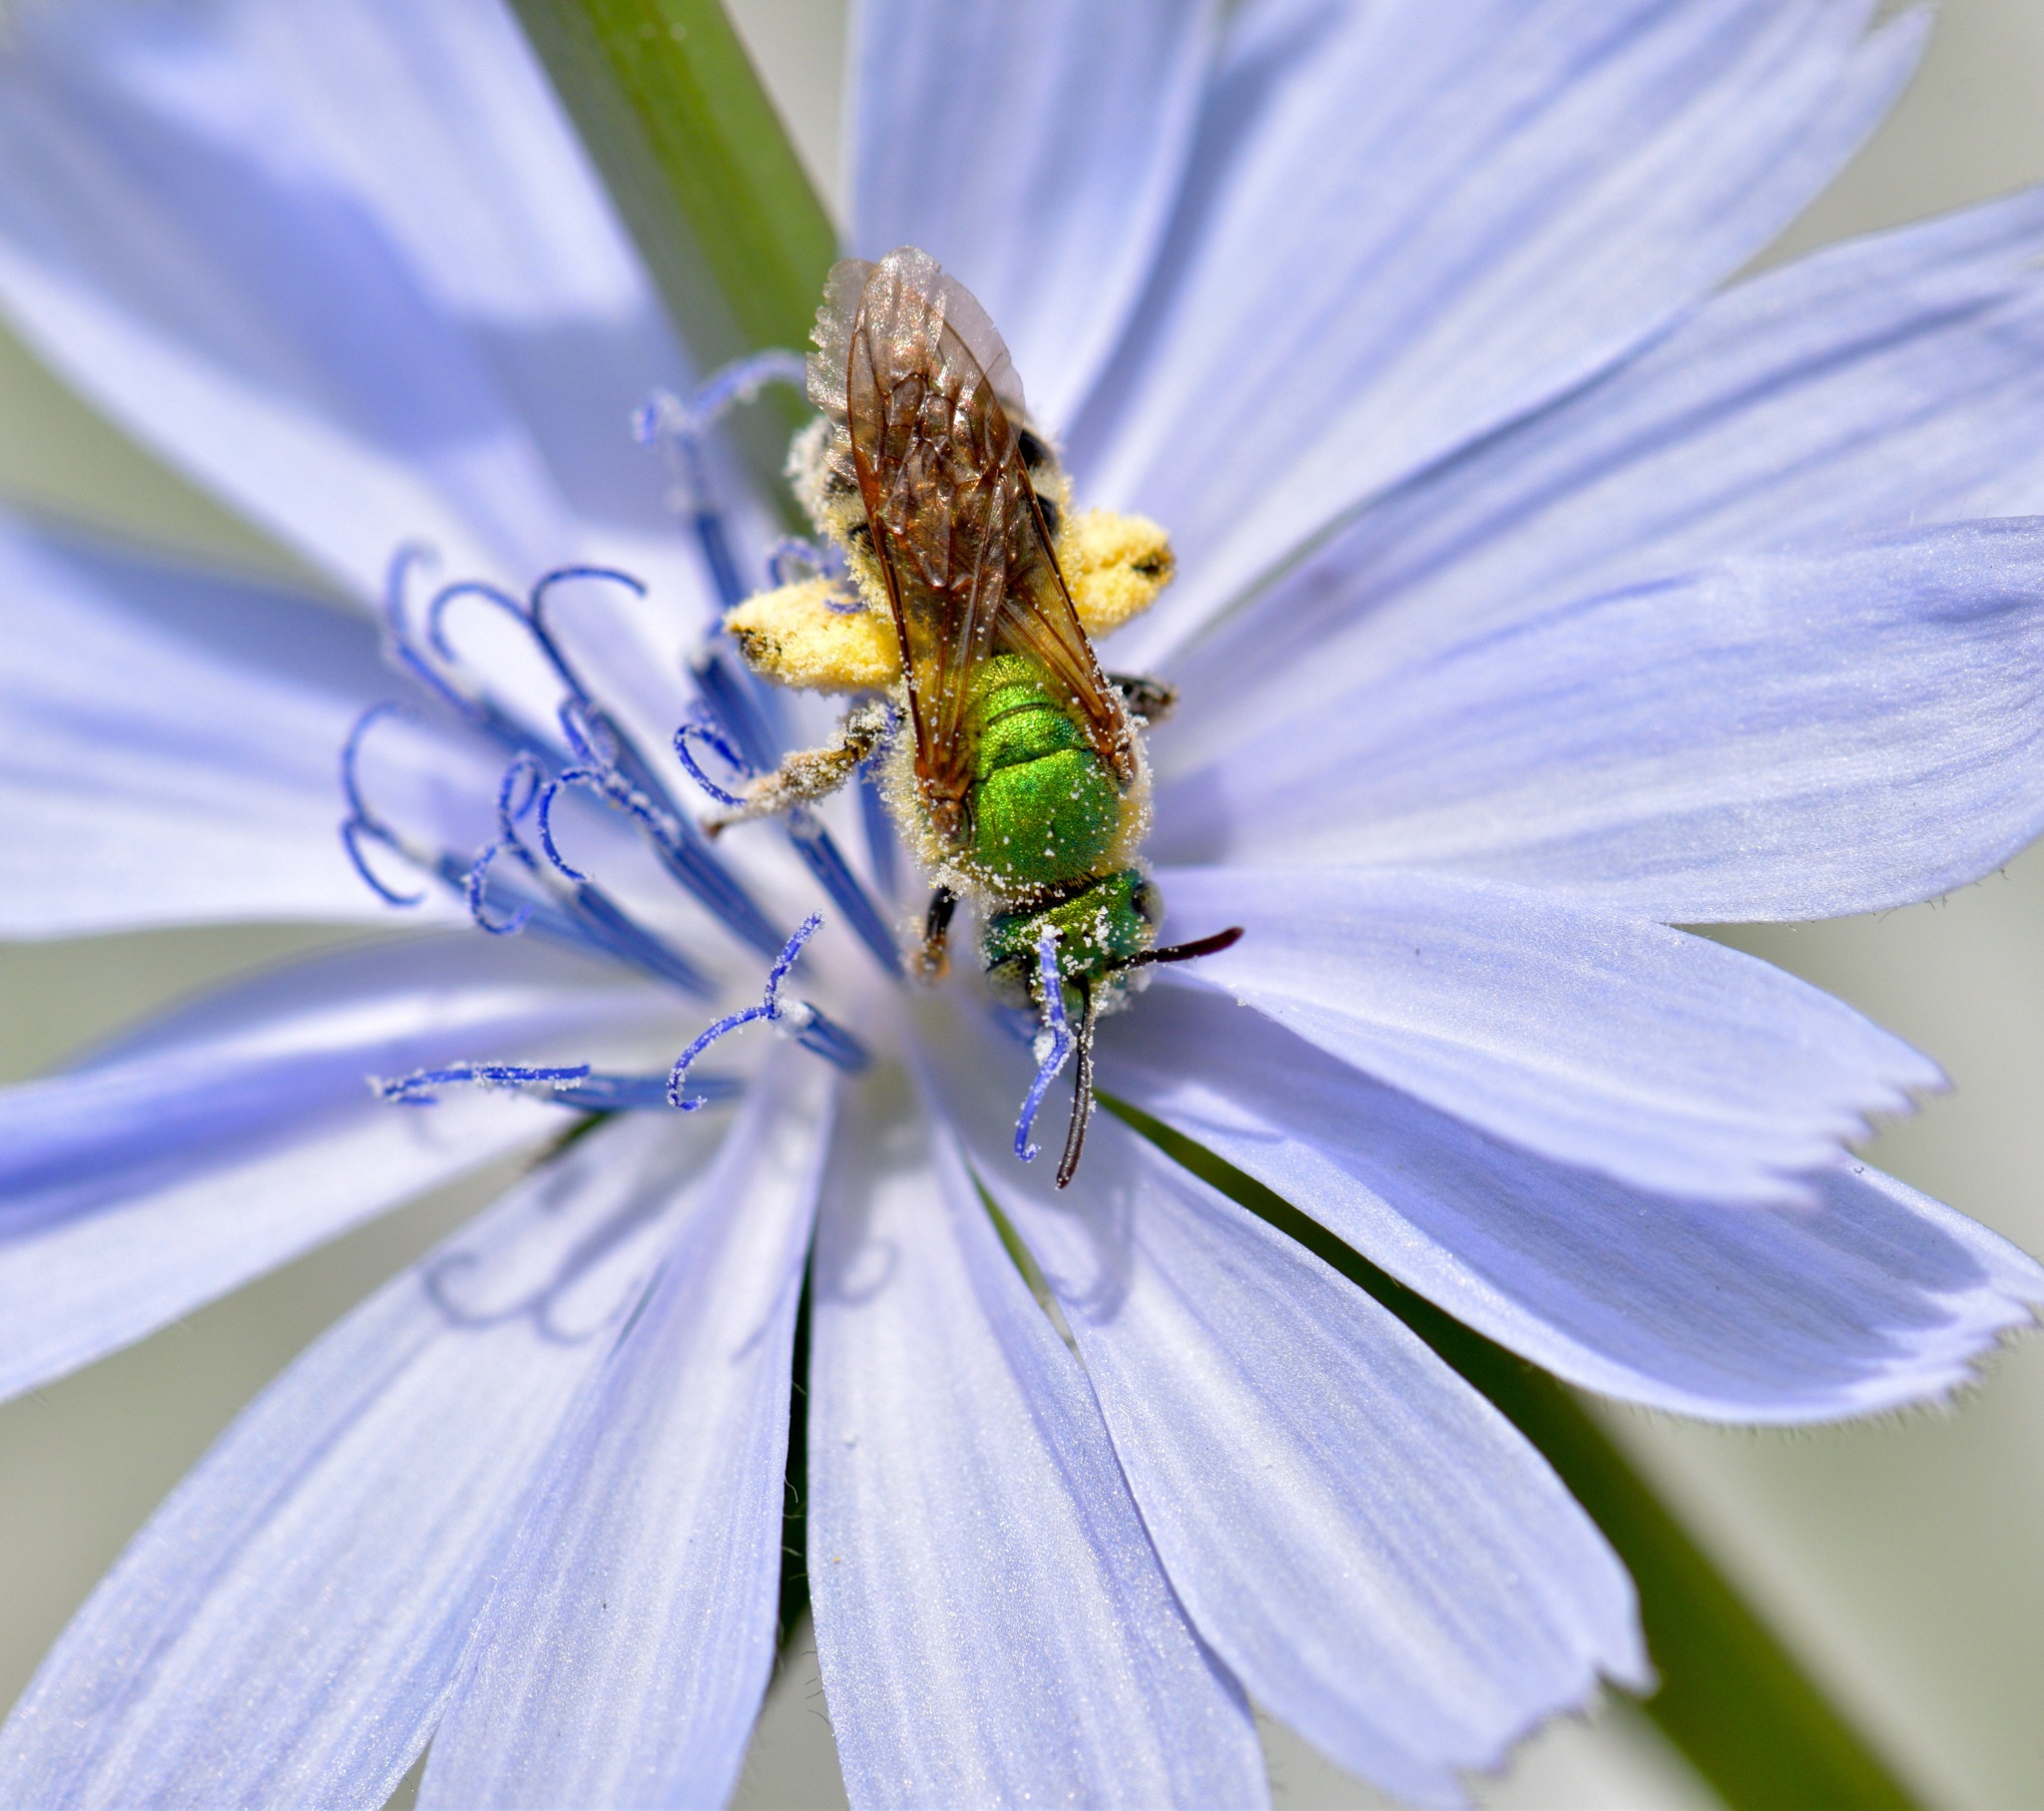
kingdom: Animalia
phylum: Arthropoda
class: Insecta
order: Hymenoptera
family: Halictidae
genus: Agapostemon
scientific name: Agapostemon virescens
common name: Bicolored striped sweat bee
